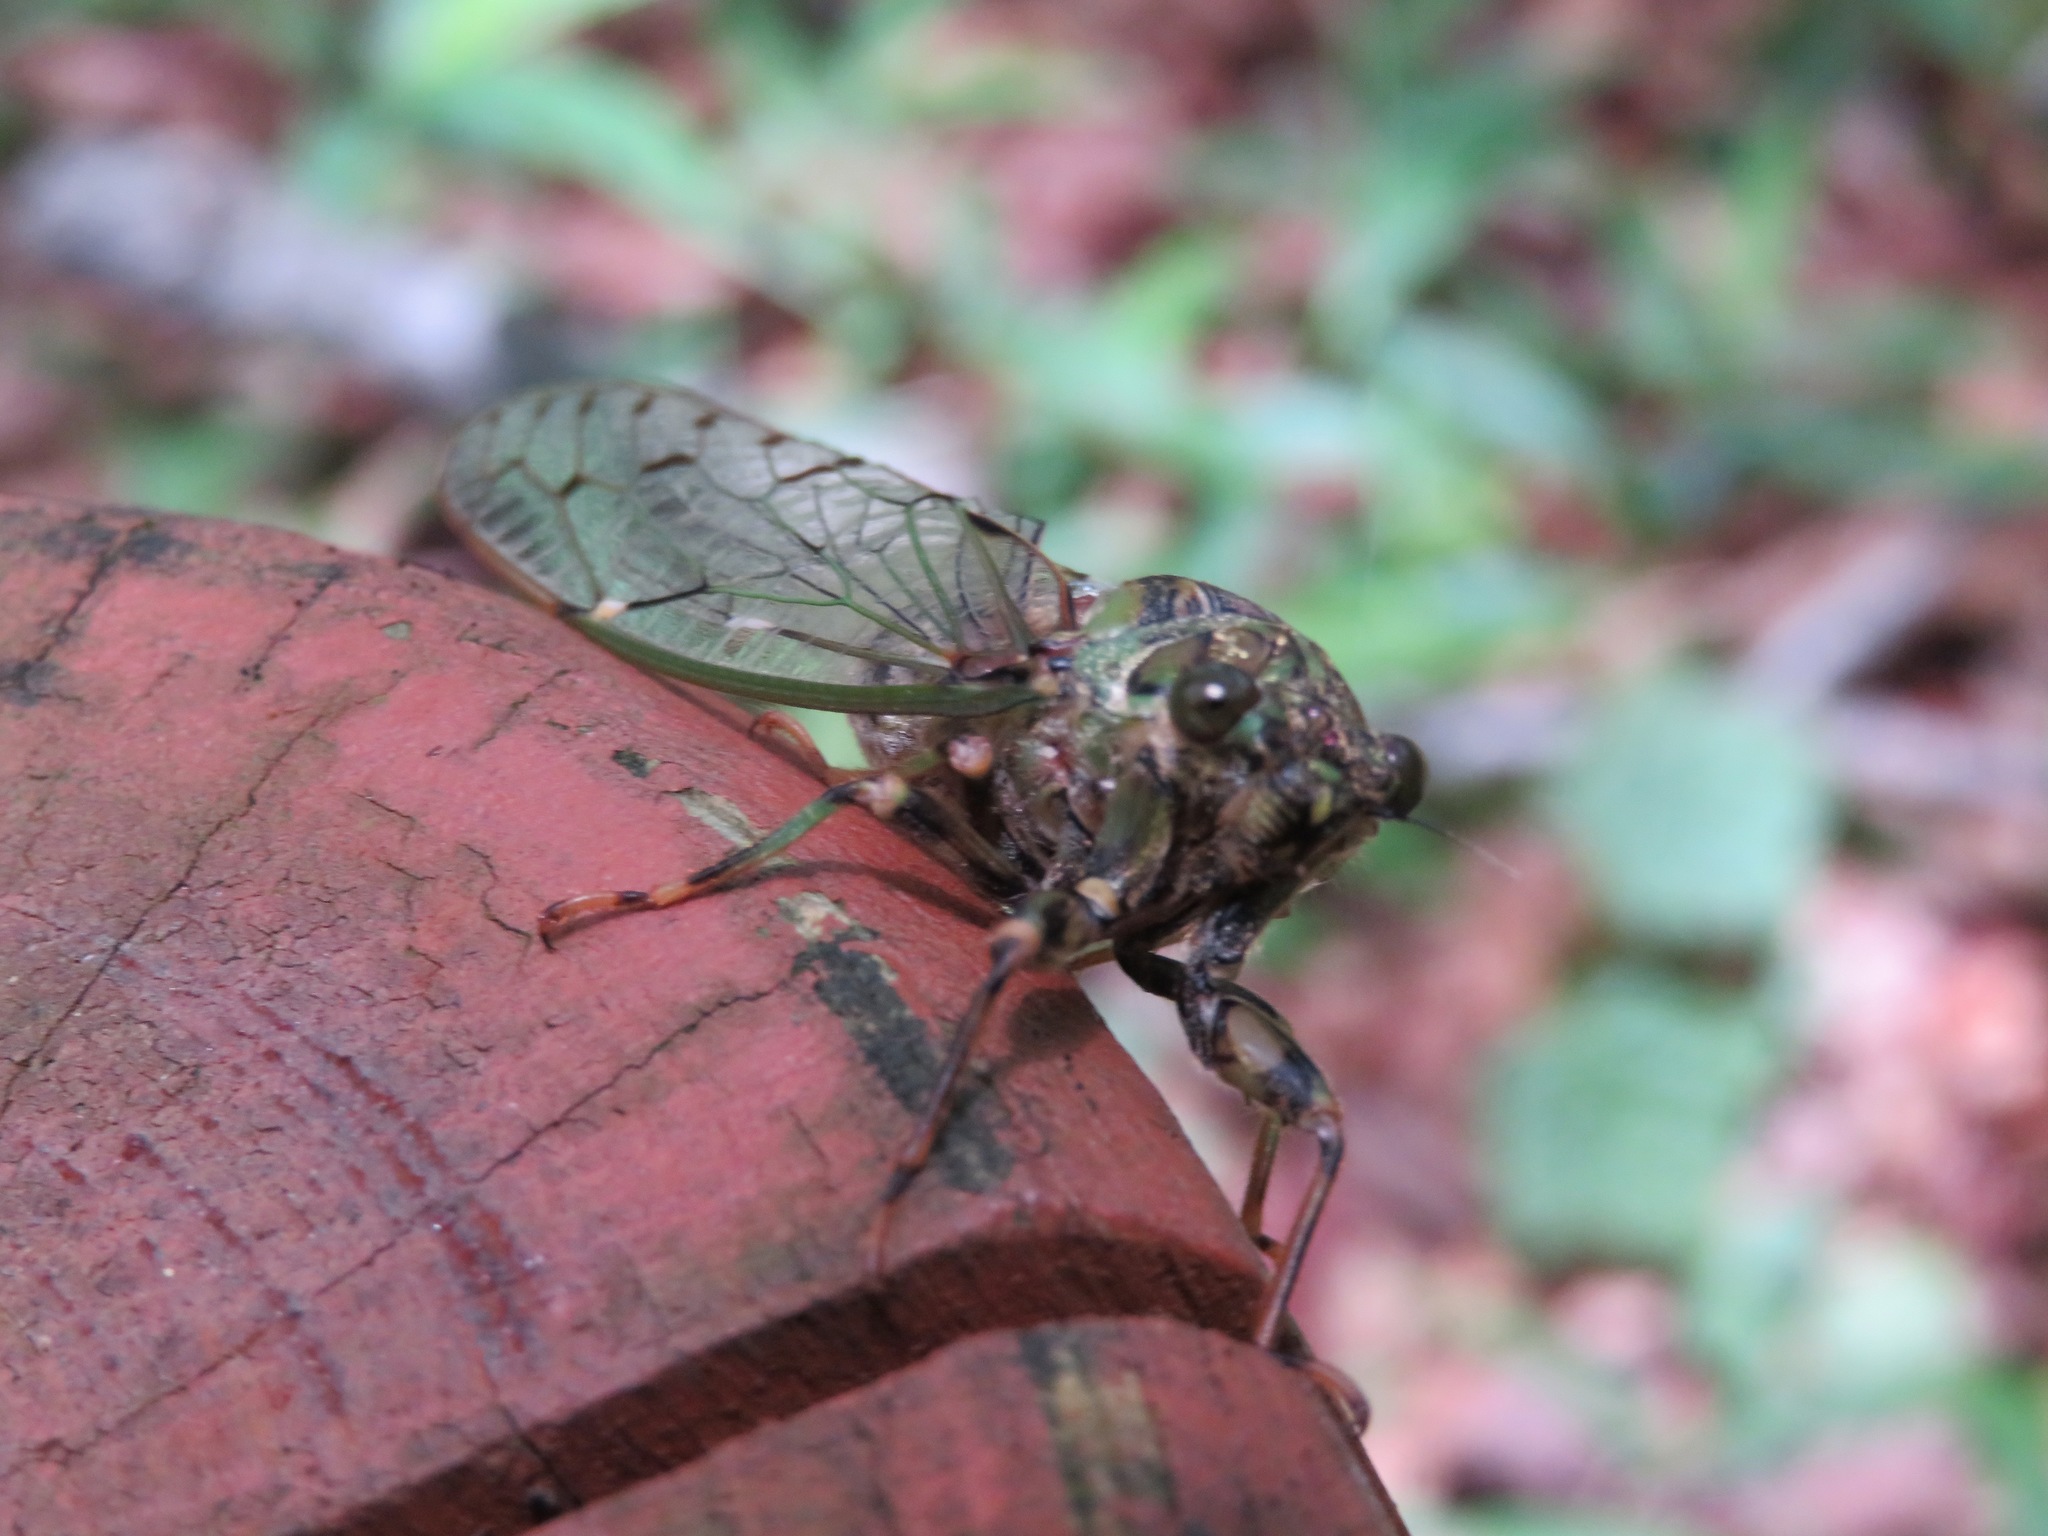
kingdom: Animalia
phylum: Arthropoda
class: Insecta
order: Hemiptera
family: Cicadidae
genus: Yezoterpnosia
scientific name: Yezoterpnosia nigricosta
